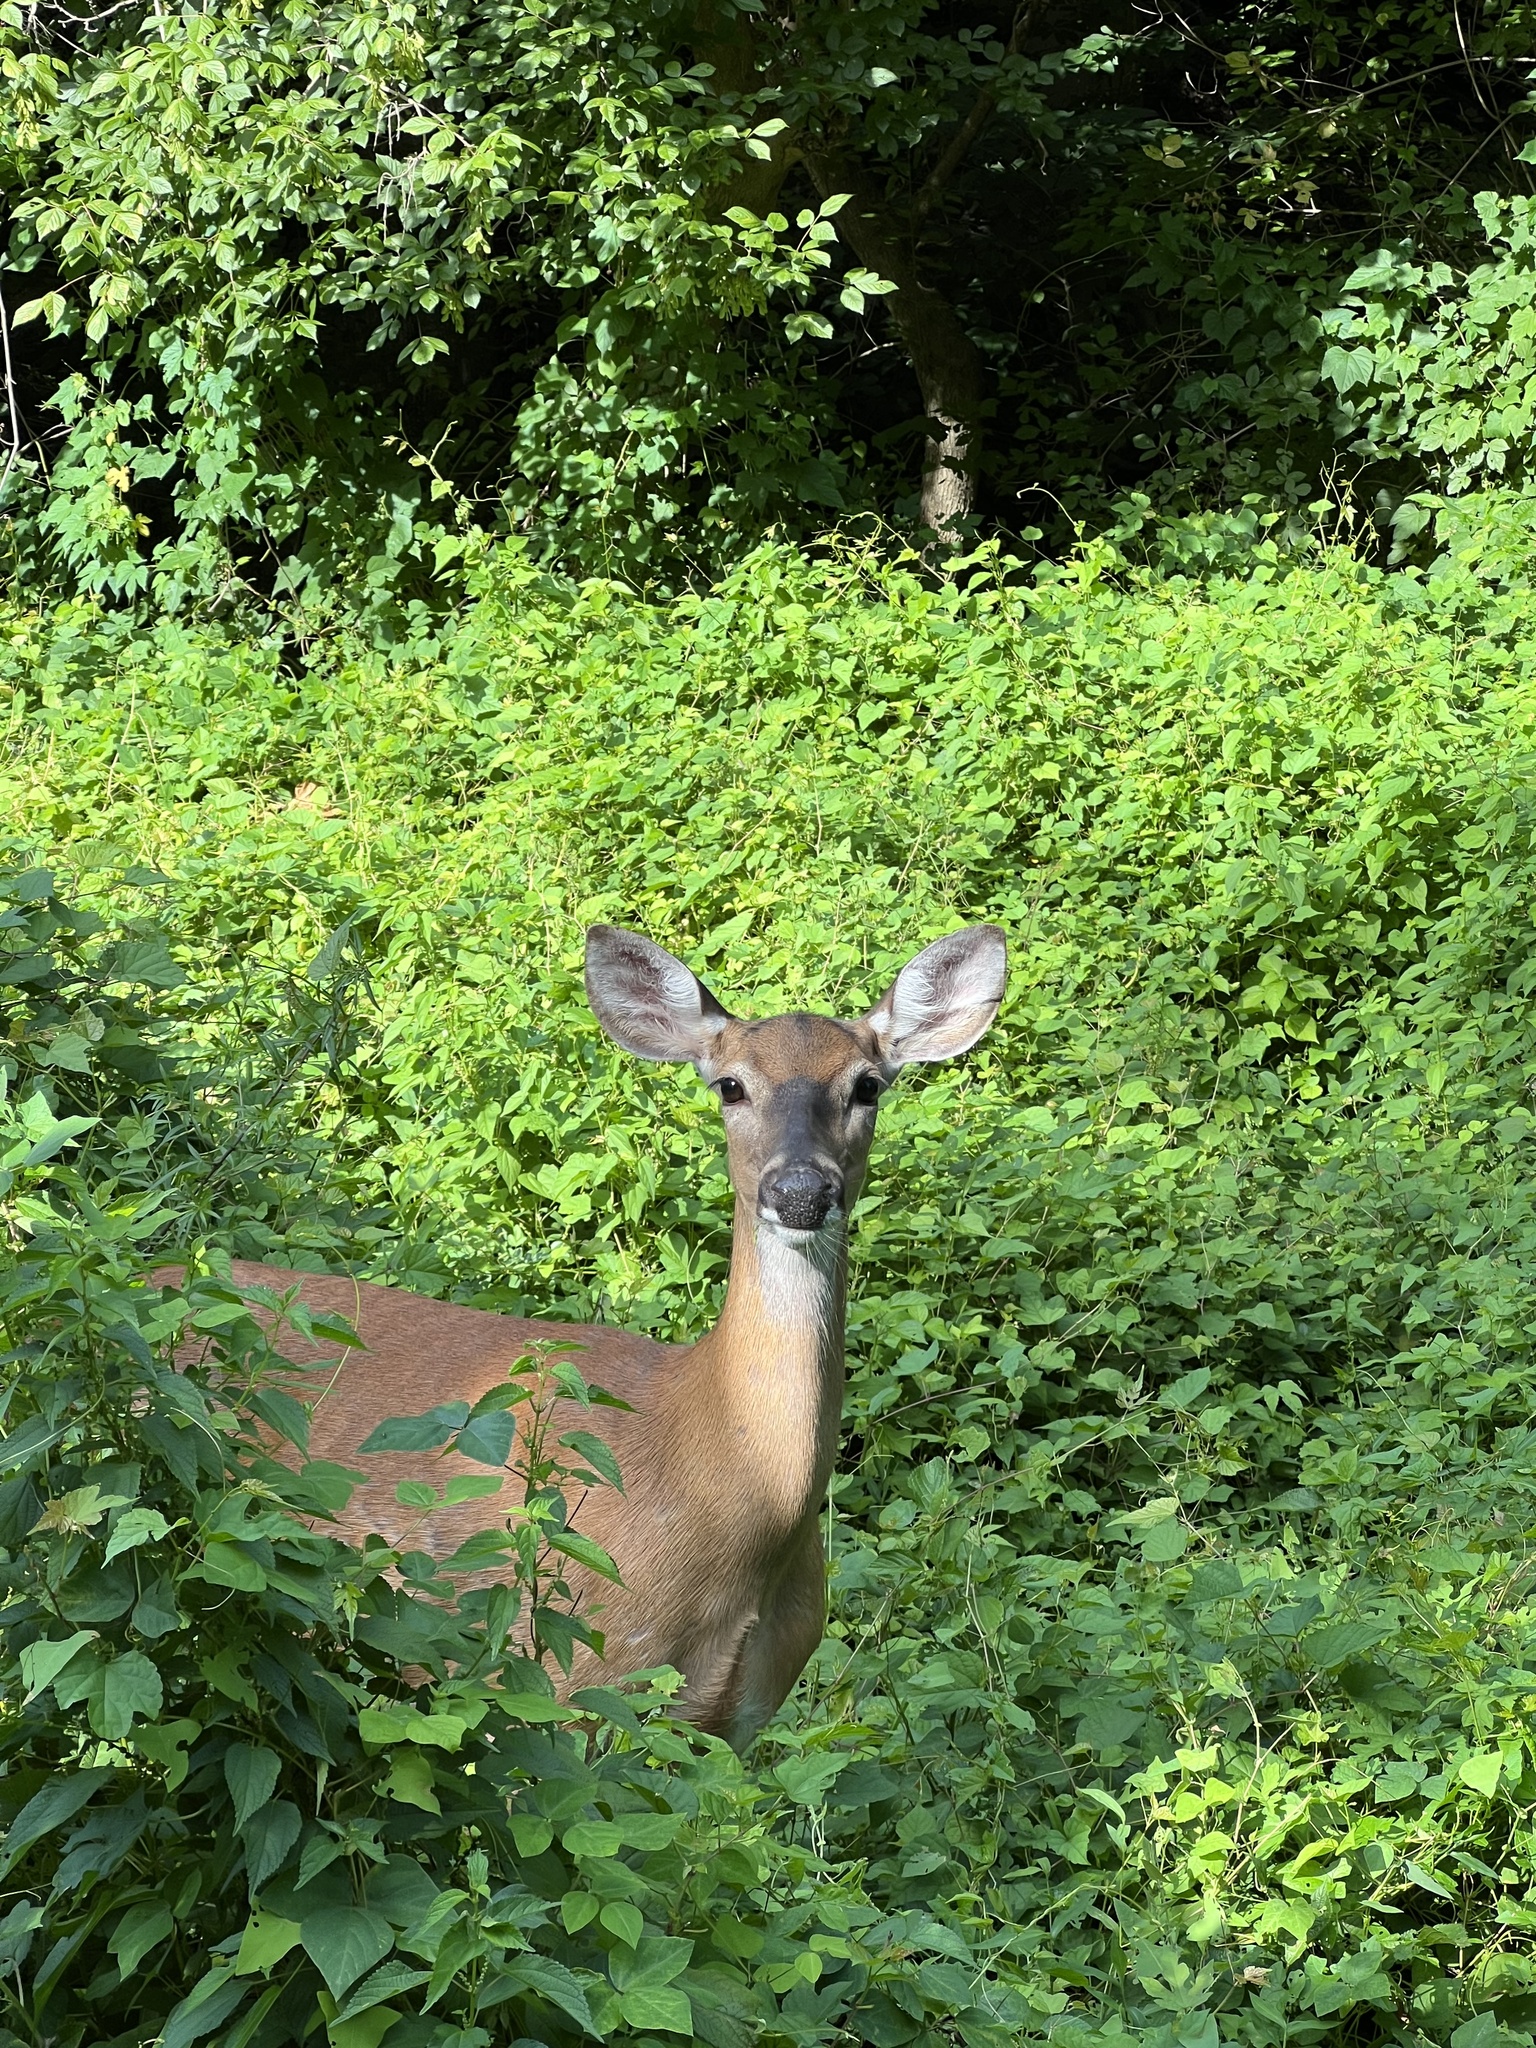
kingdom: Animalia
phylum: Chordata
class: Mammalia
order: Artiodactyla
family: Cervidae
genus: Odocoileus
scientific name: Odocoileus virginianus
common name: White-tailed deer
